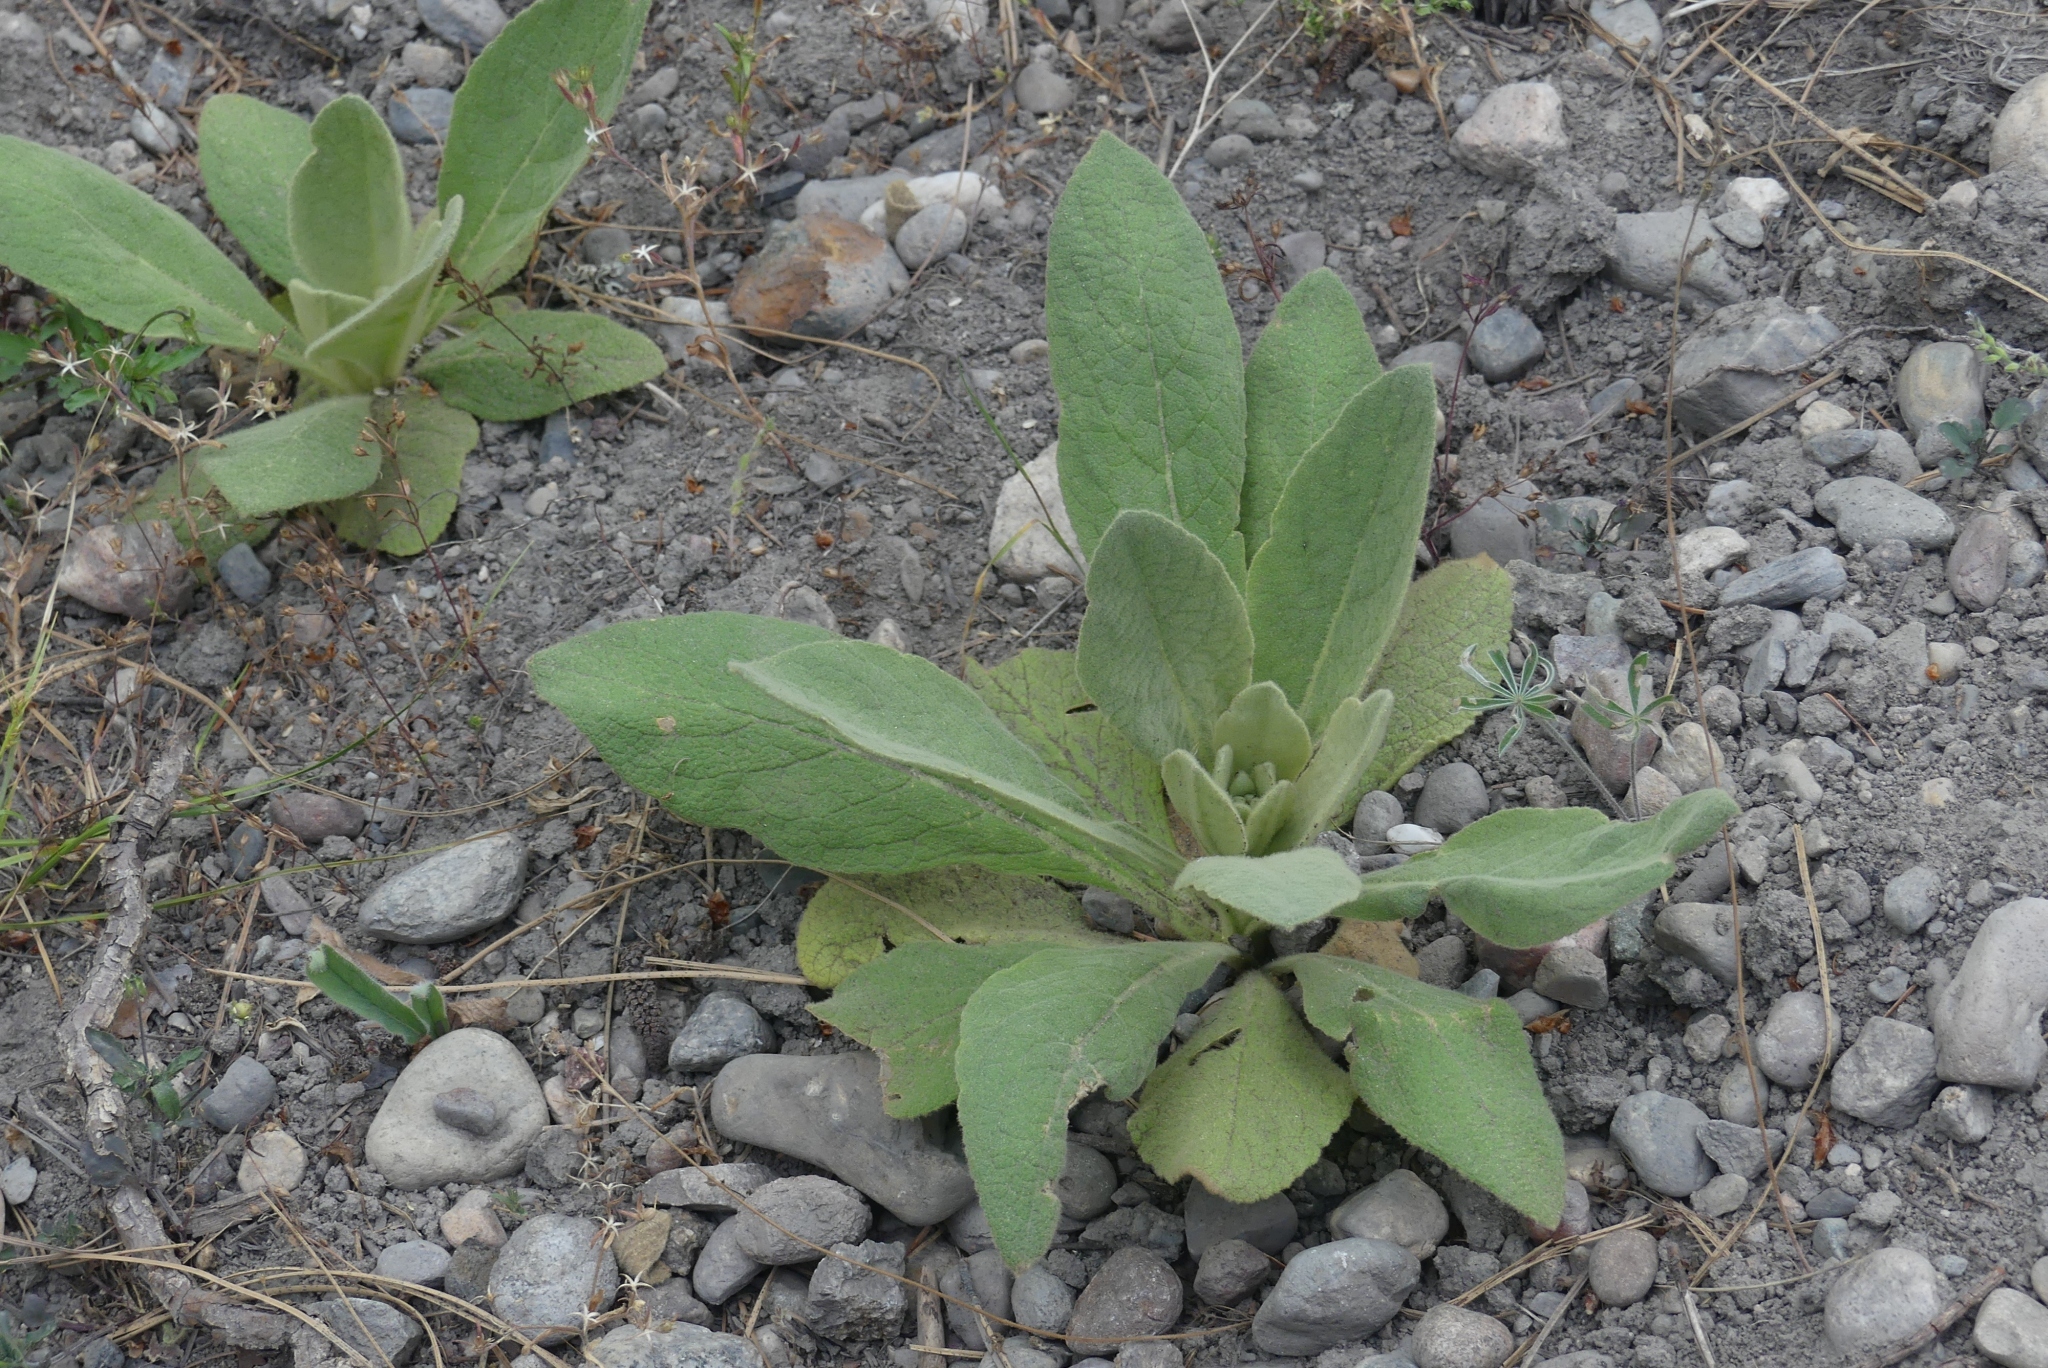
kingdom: Plantae
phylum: Tracheophyta
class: Magnoliopsida
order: Lamiales
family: Scrophulariaceae
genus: Verbascum
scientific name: Verbascum thapsus
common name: Common mullein
